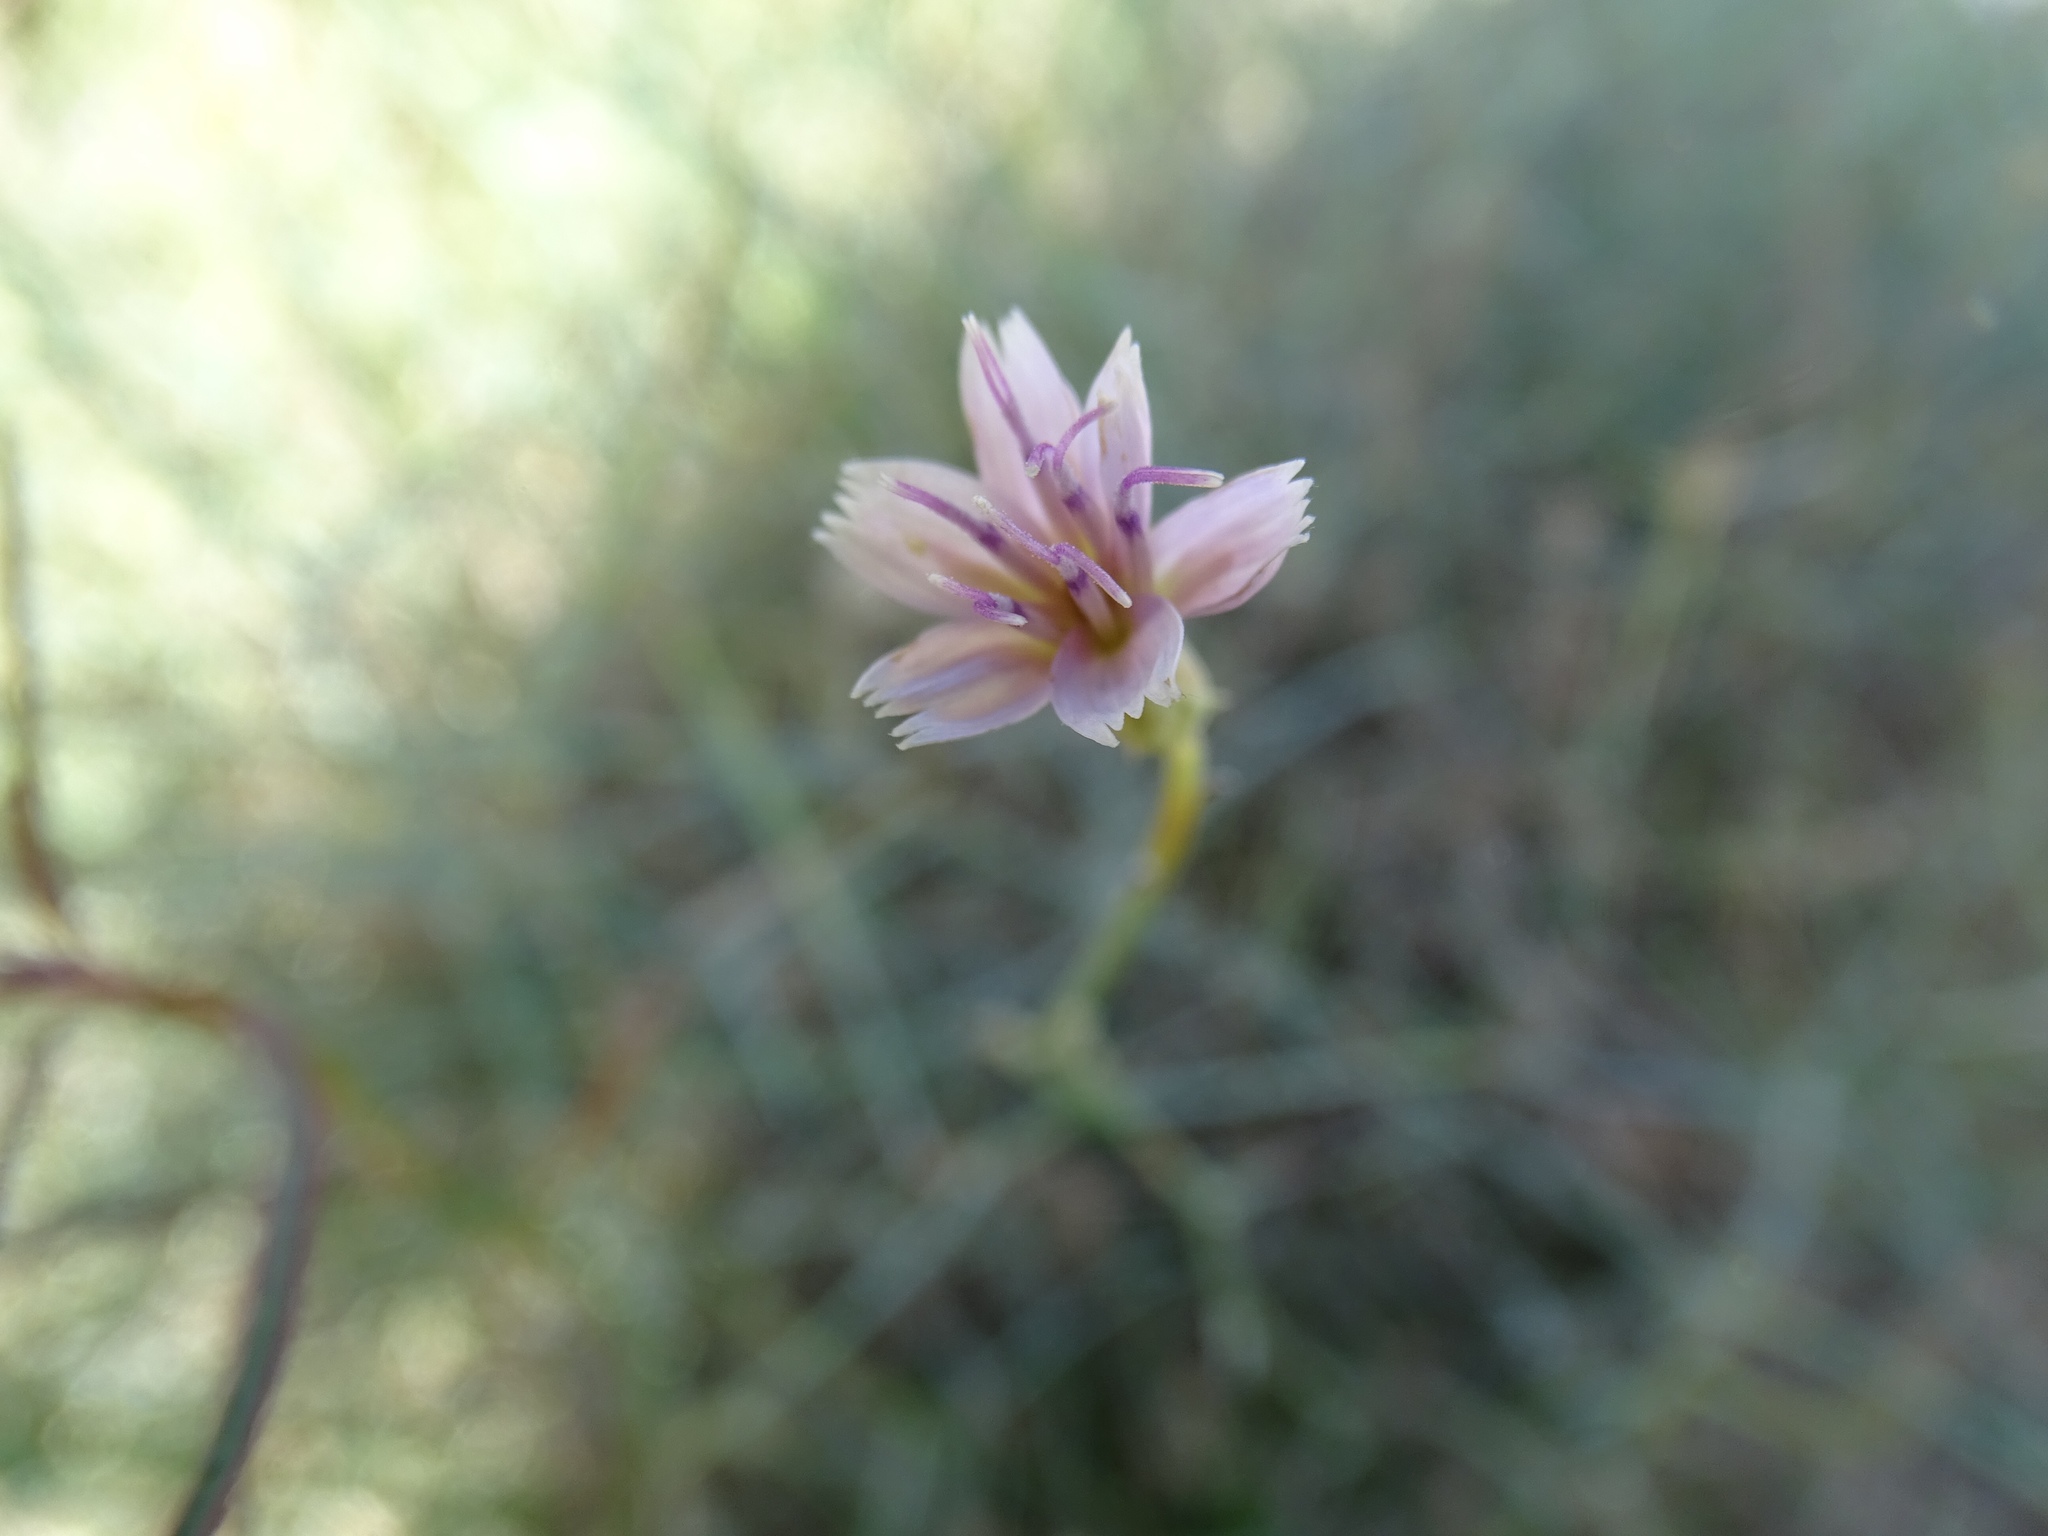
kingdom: Plantae
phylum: Tracheophyta
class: Magnoliopsida
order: Asterales
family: Asteraceae
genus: Stephanomeria
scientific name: Stephanomeria pauciflora
